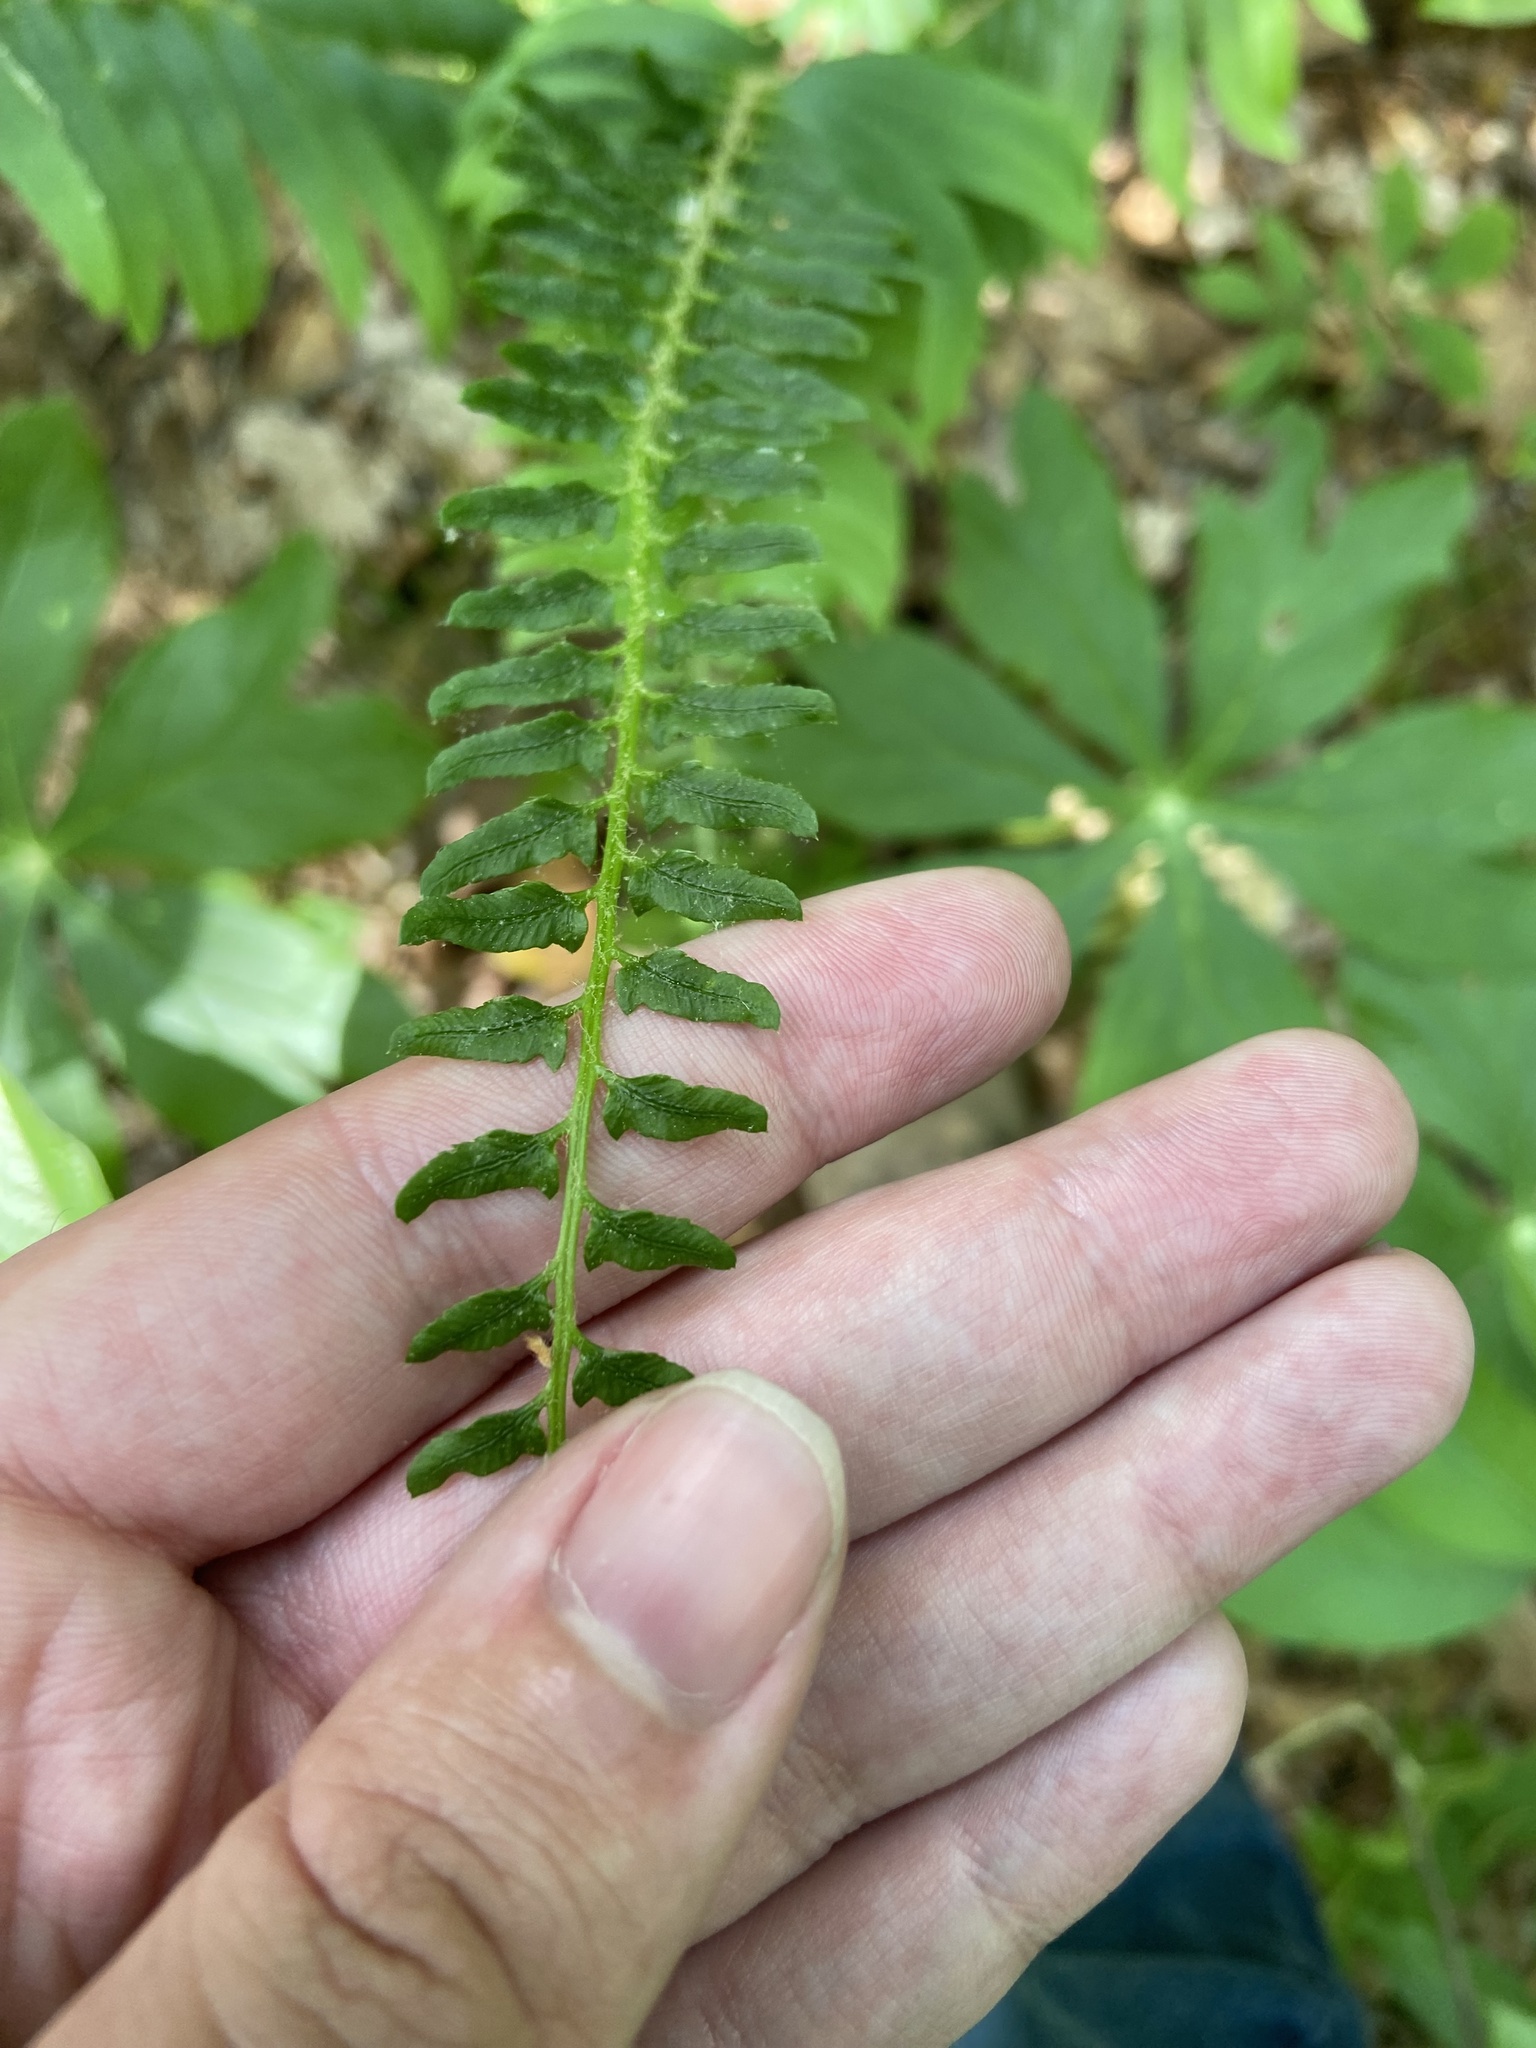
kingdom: Plantae
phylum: Tracheophyta
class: Polypodiopsida
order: Polypodiales
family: Dryopteridaceae
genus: Polystichum
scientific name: Polystichum acrostichoides
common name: Christmas fern
